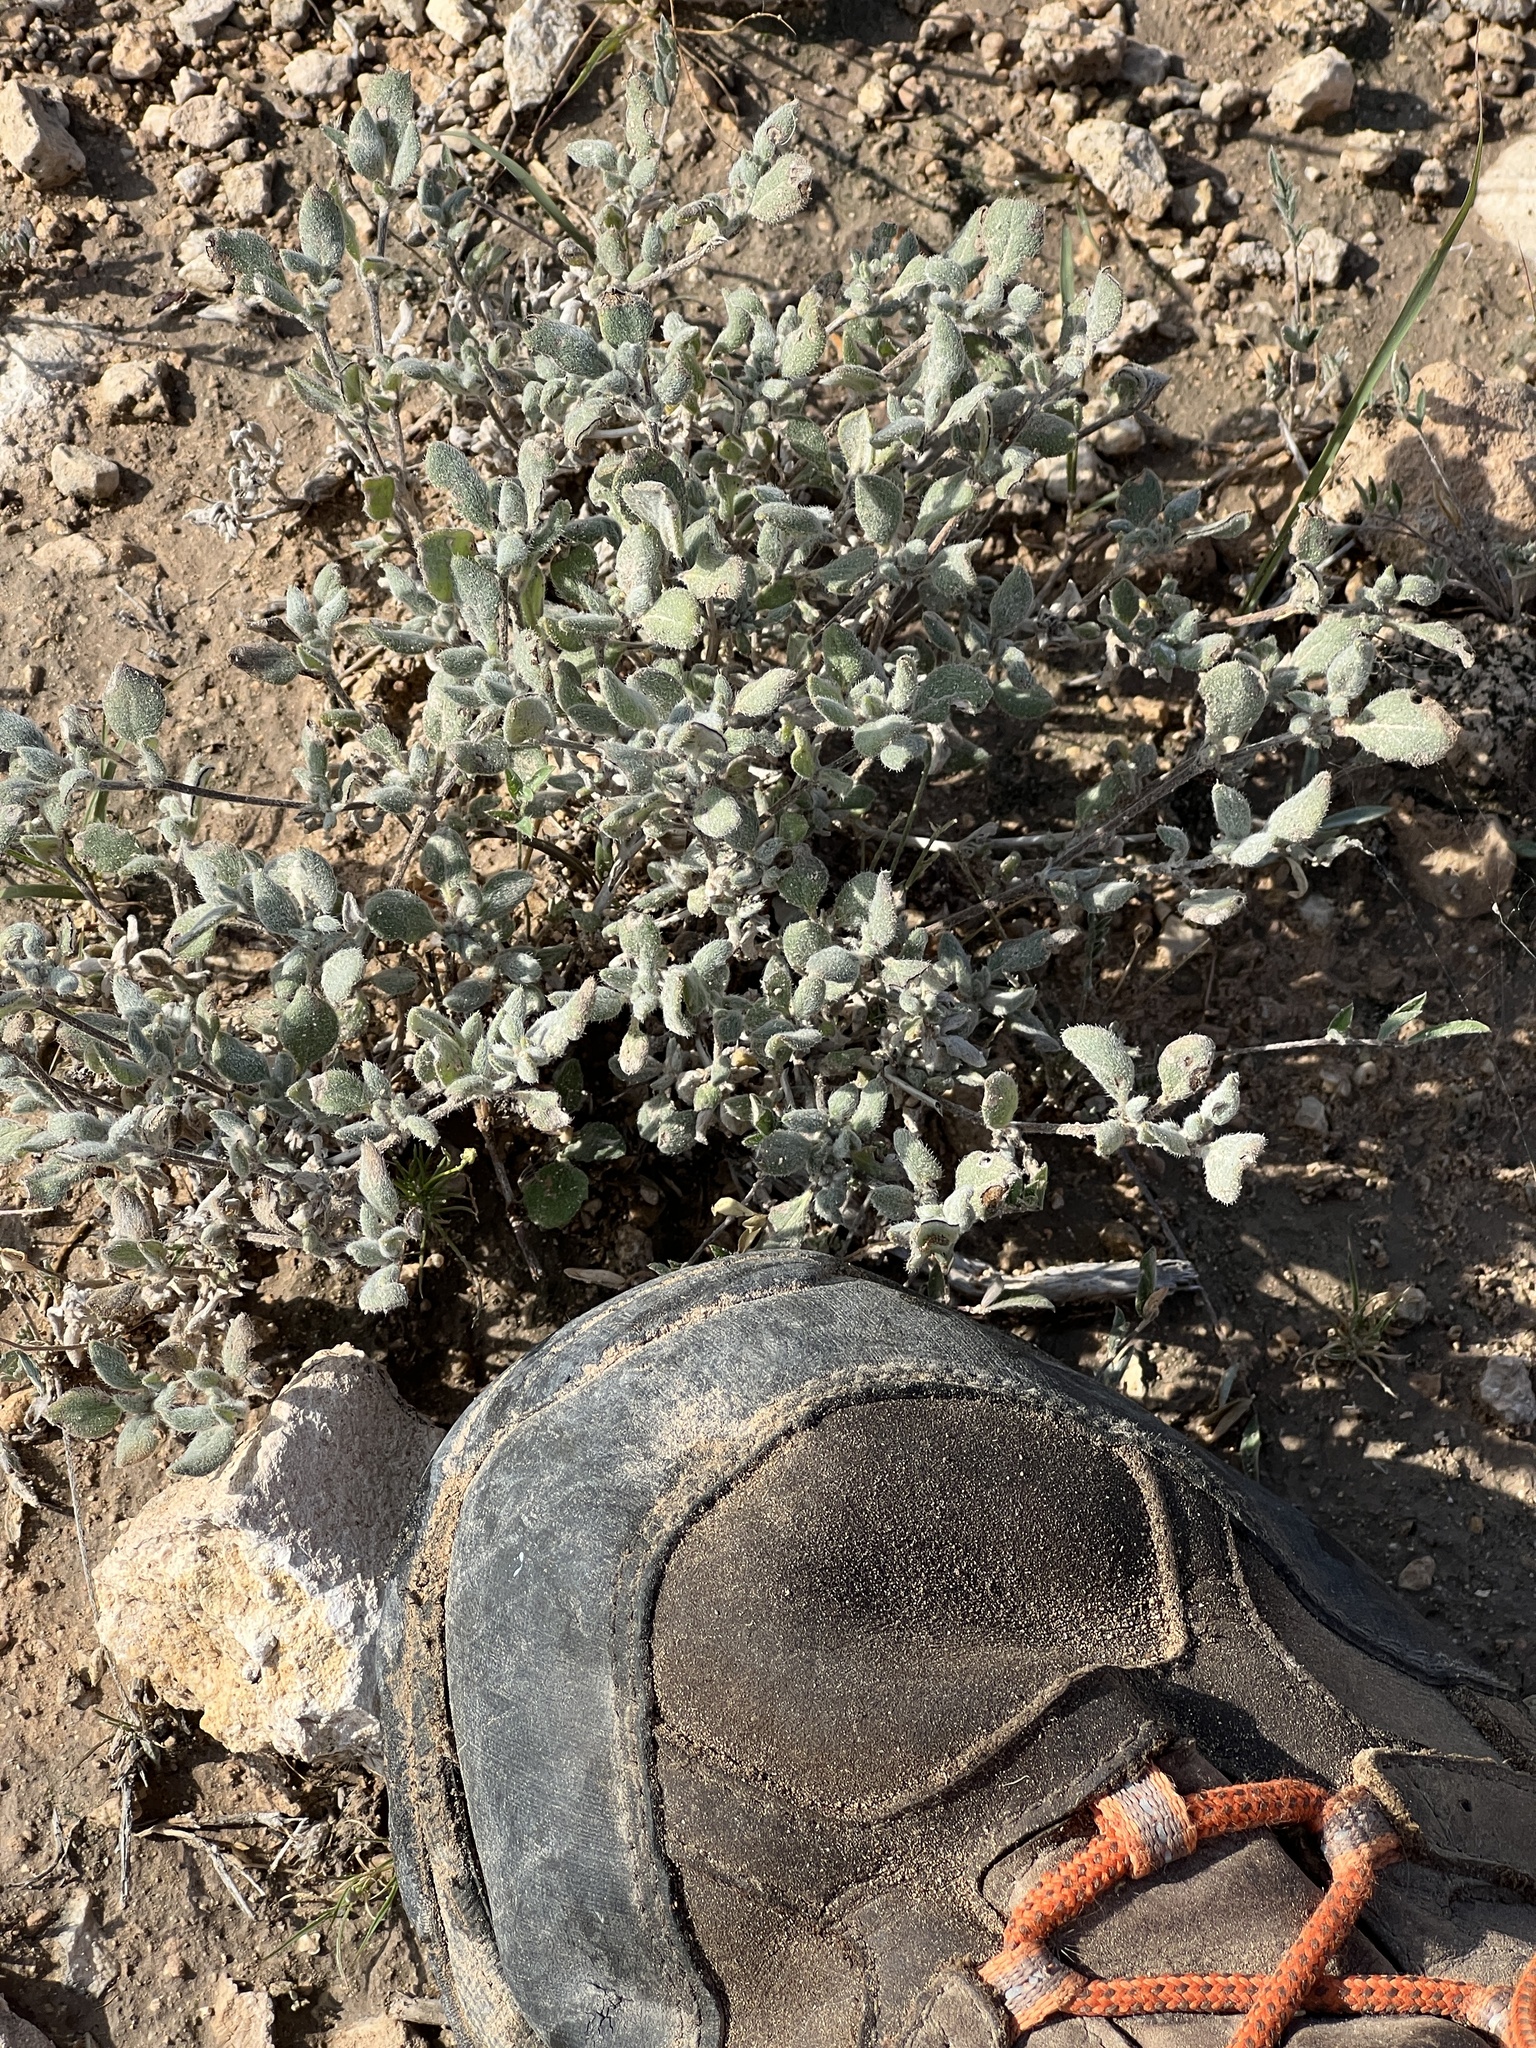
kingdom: Plantae
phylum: Tracheophyta
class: Magnoliopsida
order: Boraginales
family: Ehretiaceae
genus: Tiquilia
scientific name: Tiquilia canescens
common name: Hairy tiquilia
